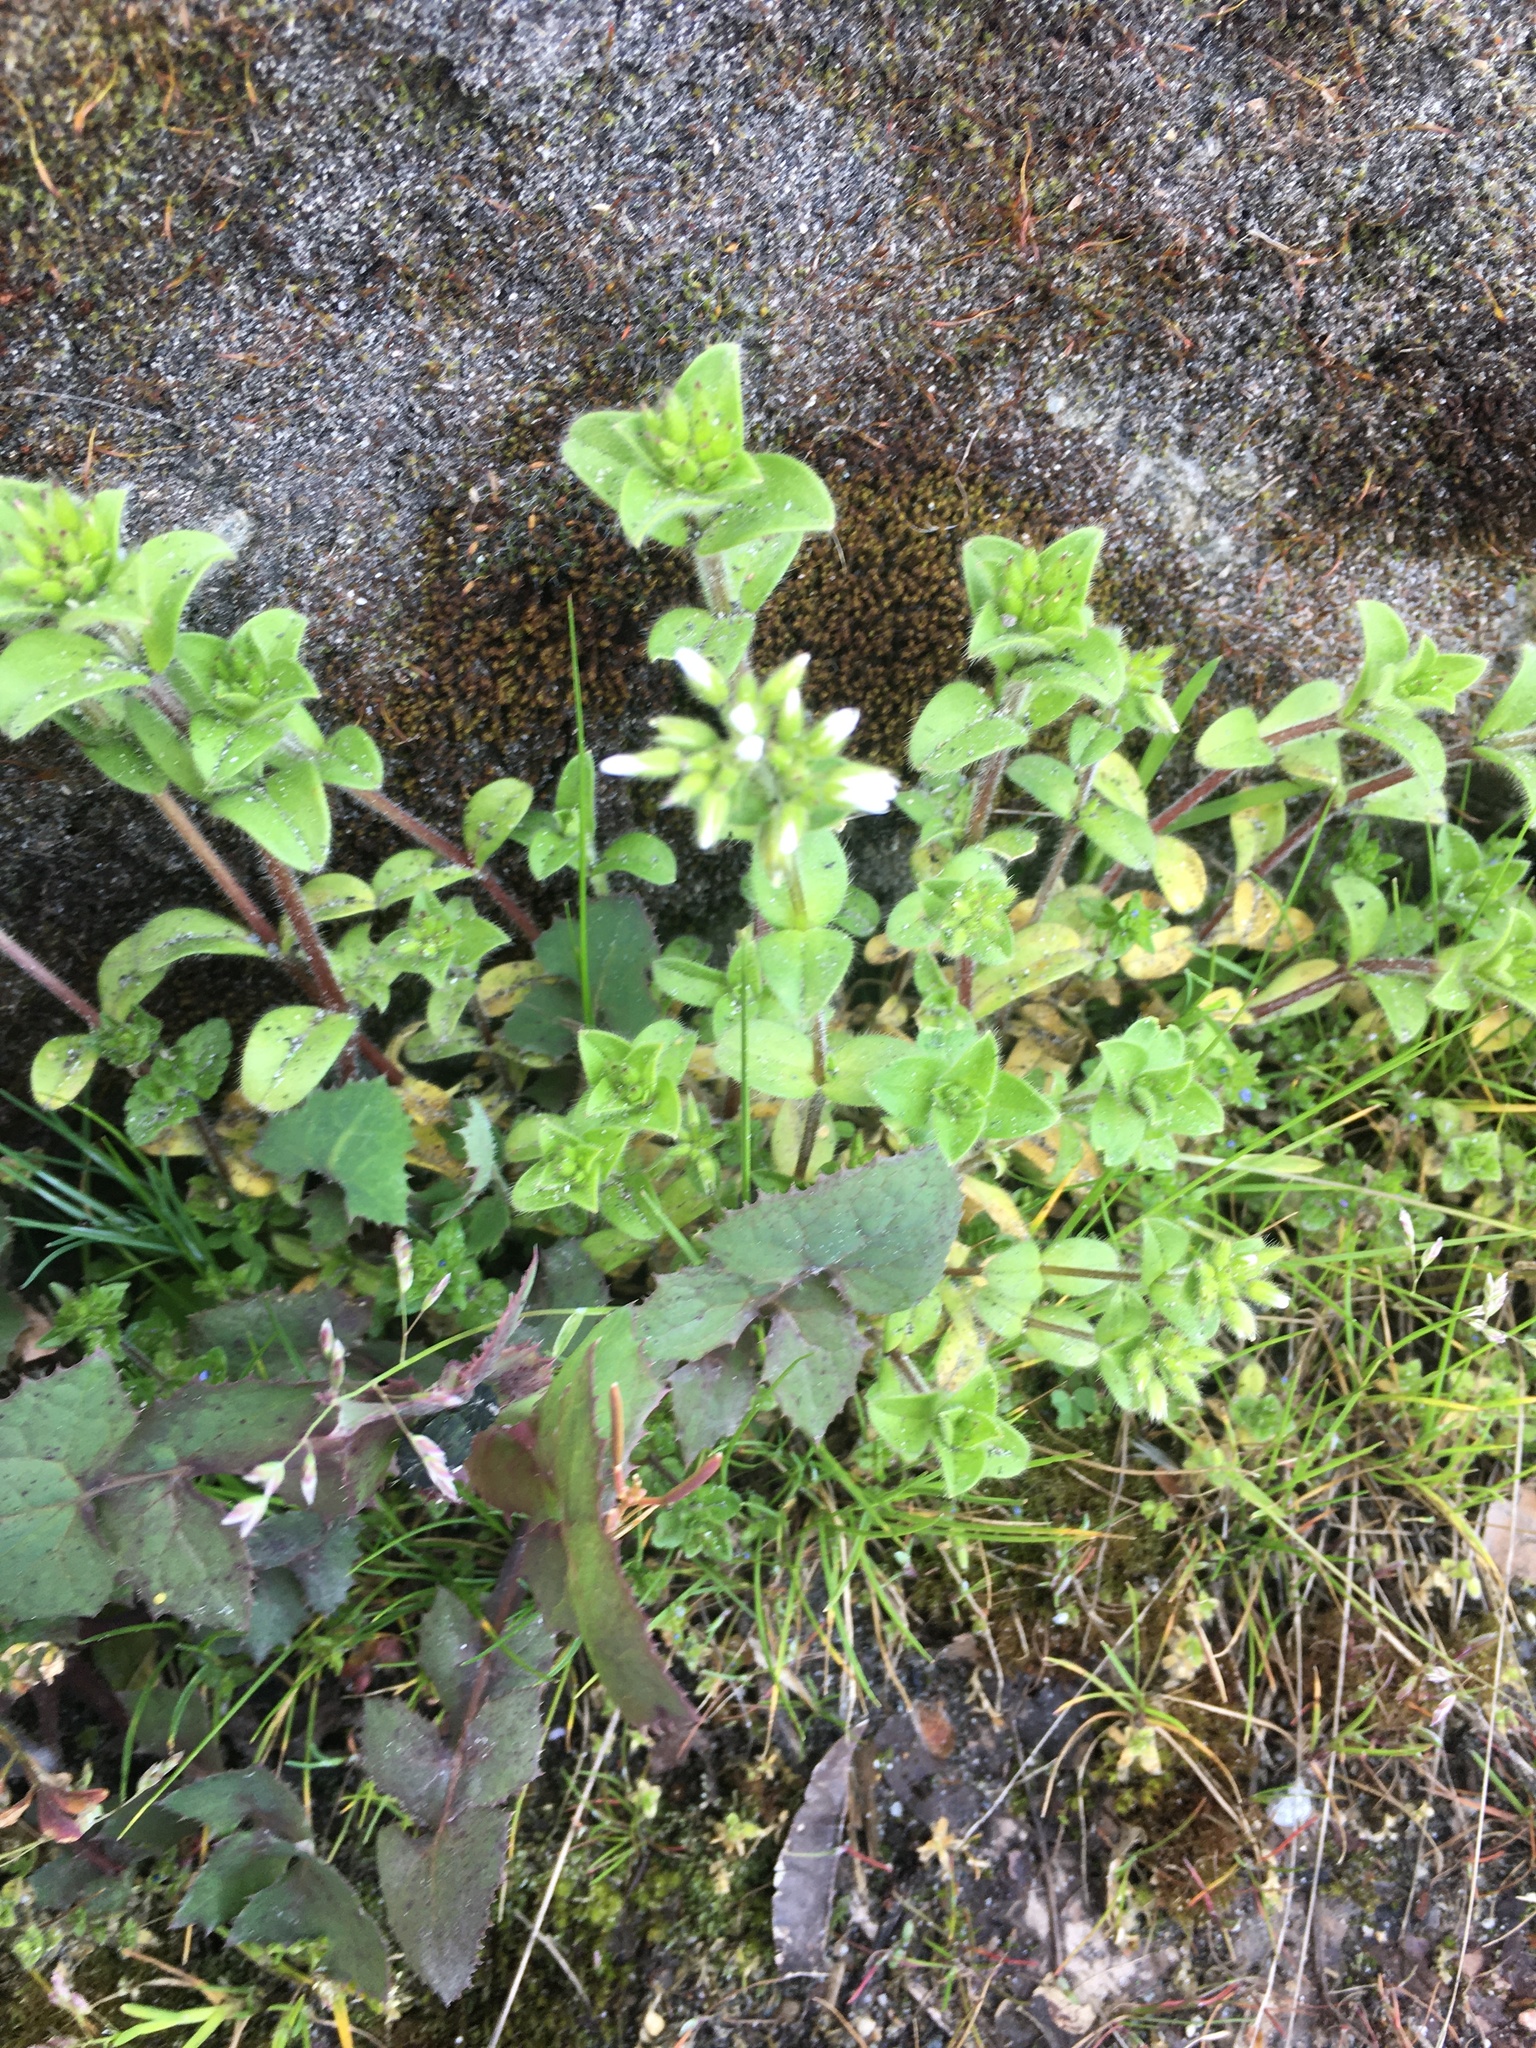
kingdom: Plantae
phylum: Tracheophyta
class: Magnoliopsida
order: Caryophyllales
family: Caryophyllaceae
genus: Cerastium
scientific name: Cerastium glomeratum
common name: Sticky chickweed
